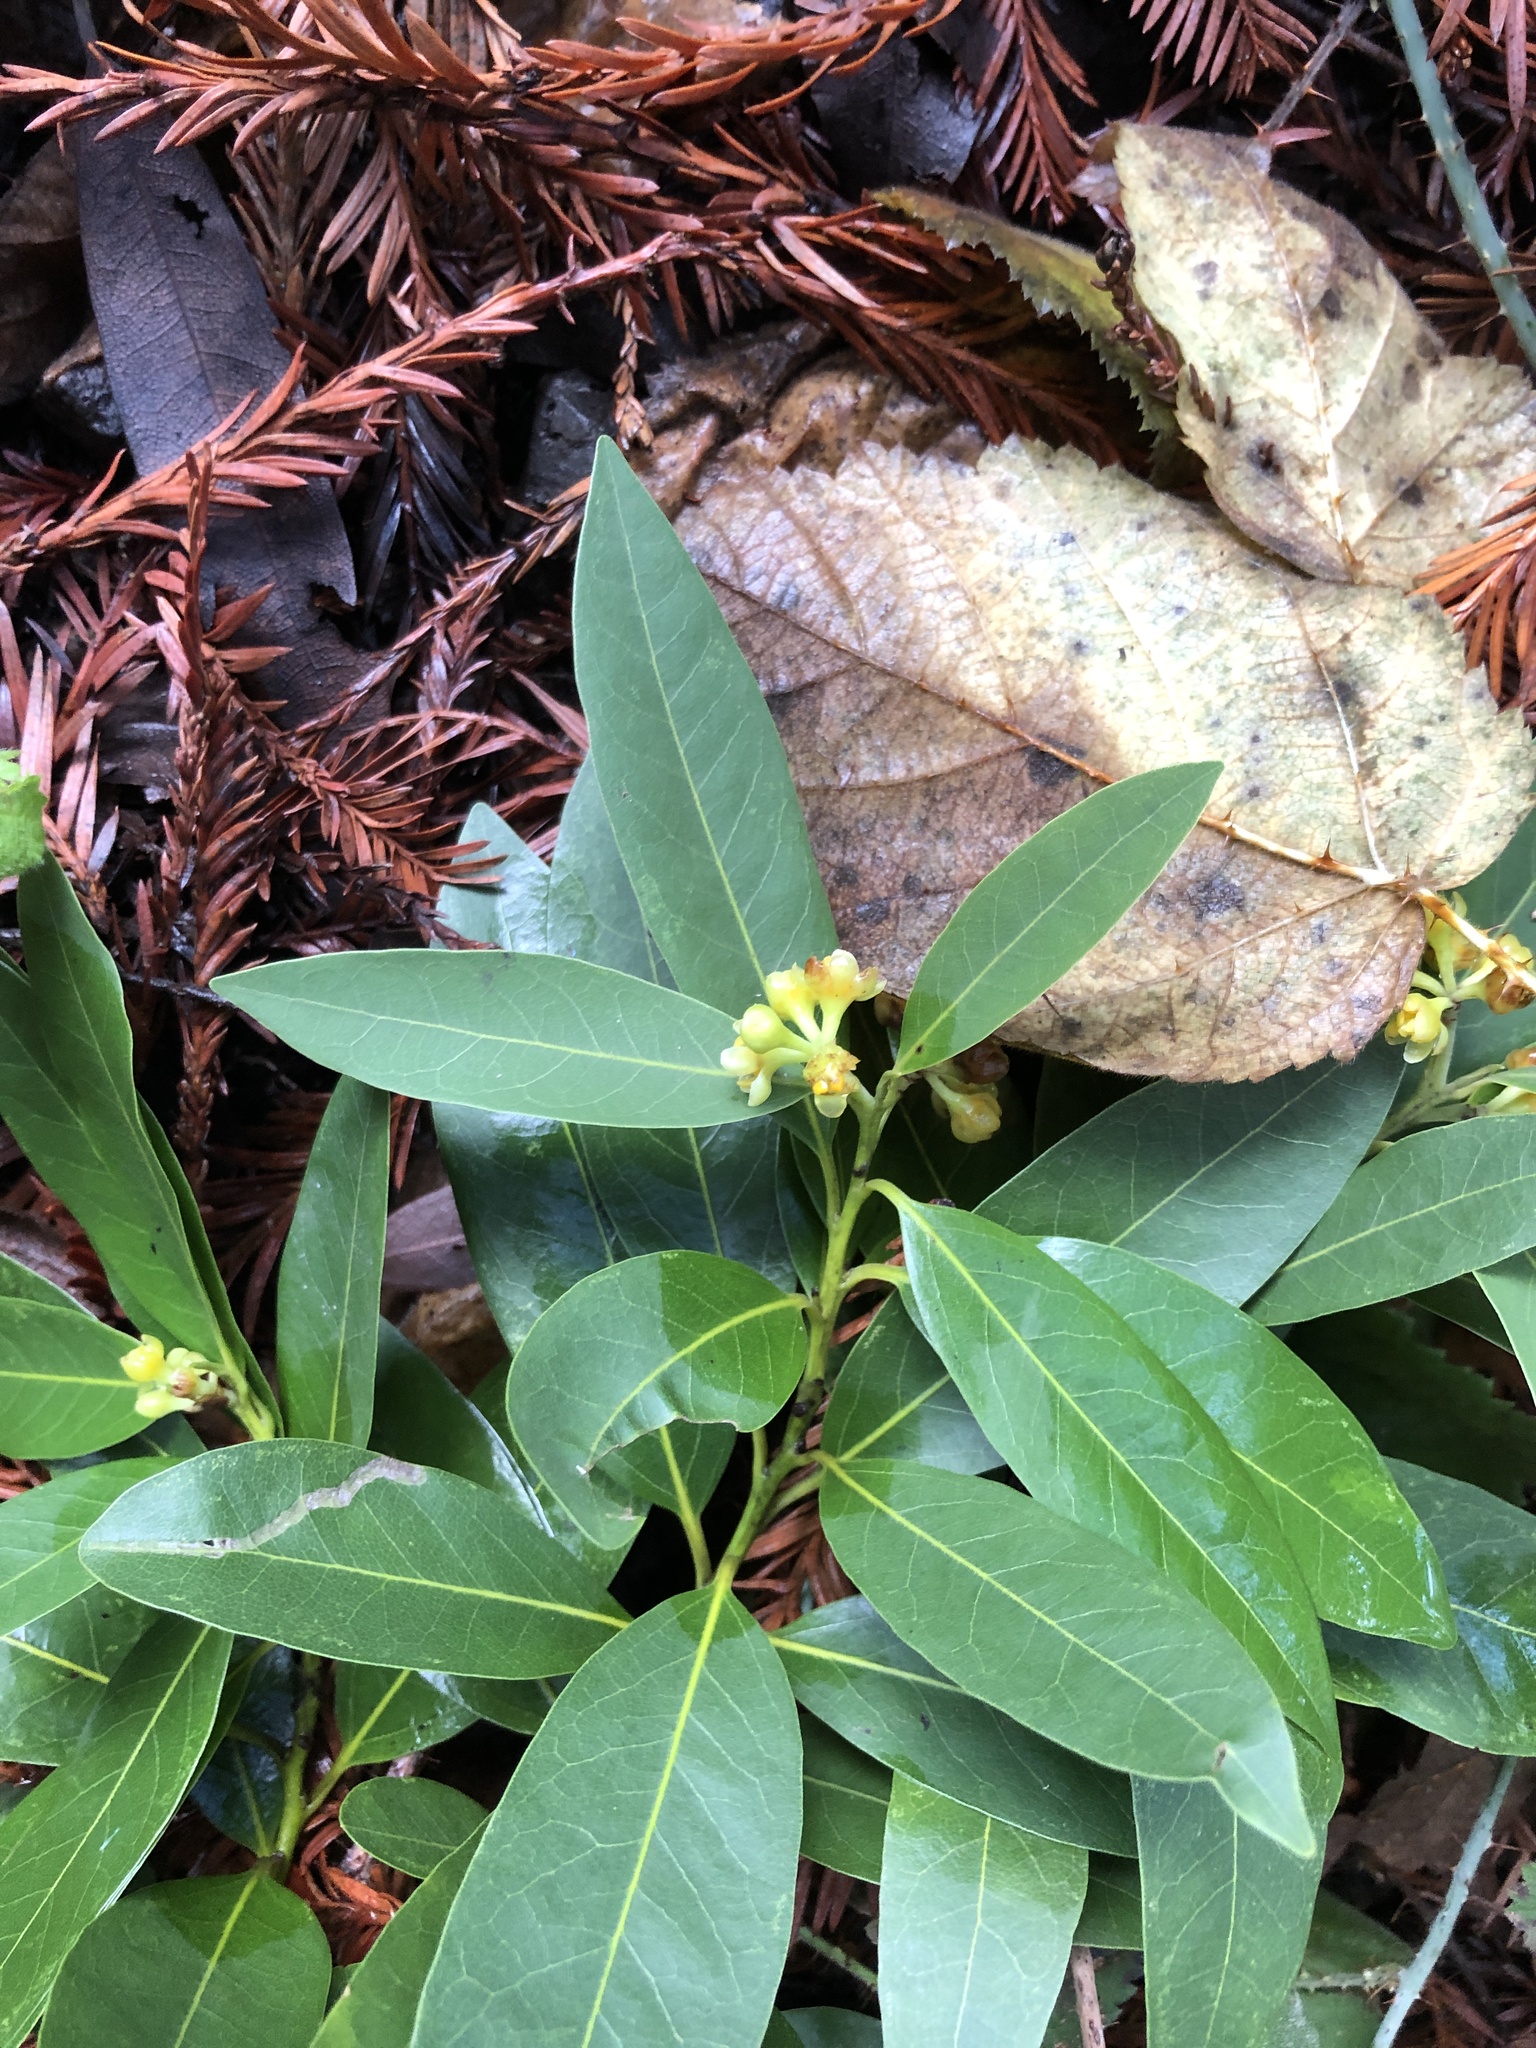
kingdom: Plantae
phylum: Tracheophyta
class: Magnoliopsida
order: Laurales
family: Lauraceae
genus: Umbellularia
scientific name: Umbellularia californica
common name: California bay
